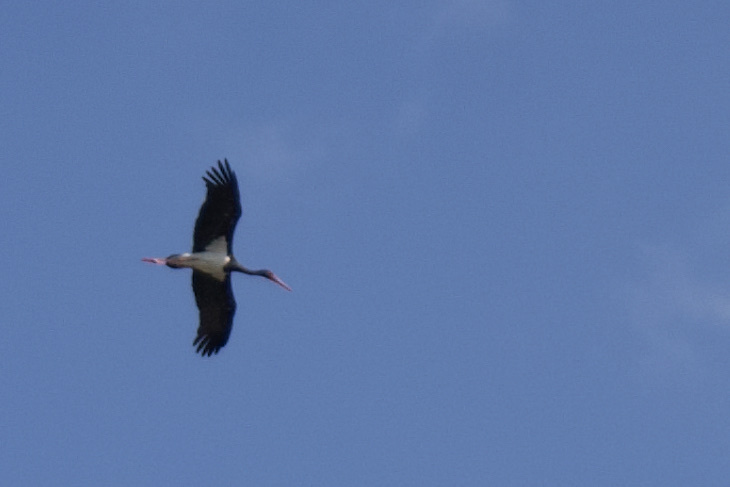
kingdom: Animalia
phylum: Chordata
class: Aves
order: Ciconiiformes
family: Ciconiidae
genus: Ciconia
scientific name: Ciconia nigra
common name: Black stork
